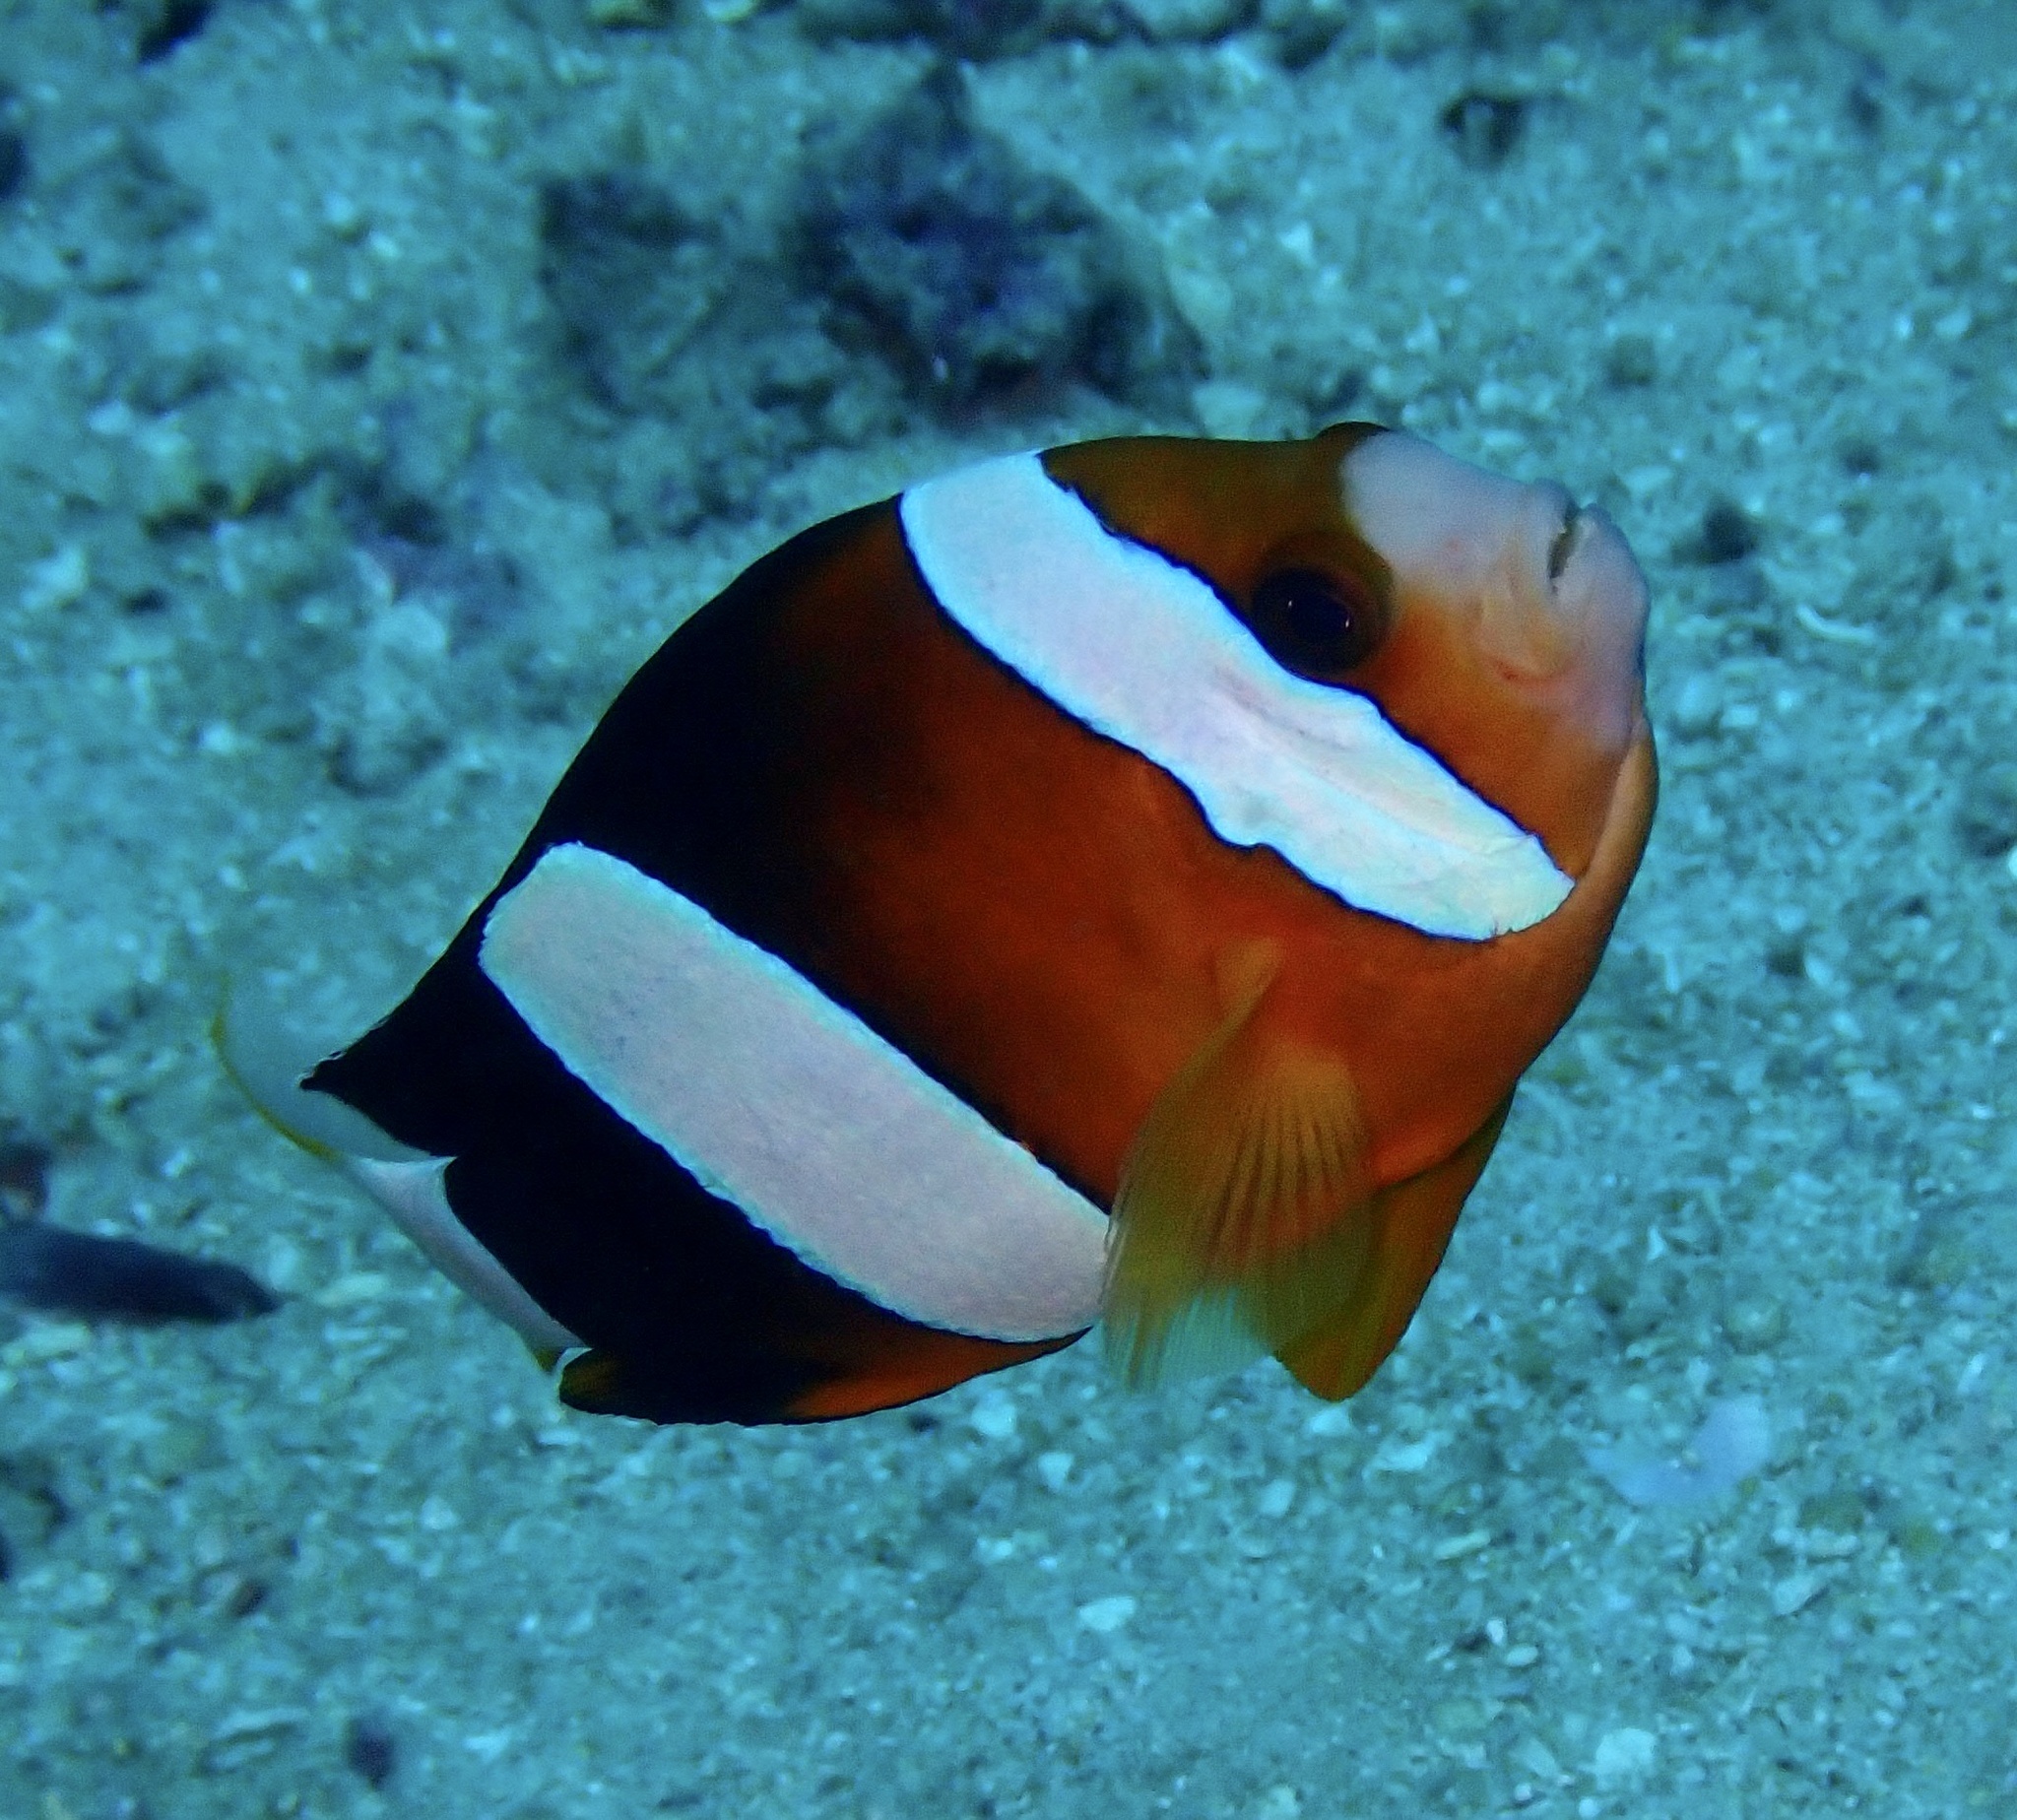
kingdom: Animalia
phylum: Chordata
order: Perciformes
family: Pomacentridae
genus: Amphiprion
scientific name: Amphiprion clarkii
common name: Clark's anemonefish
